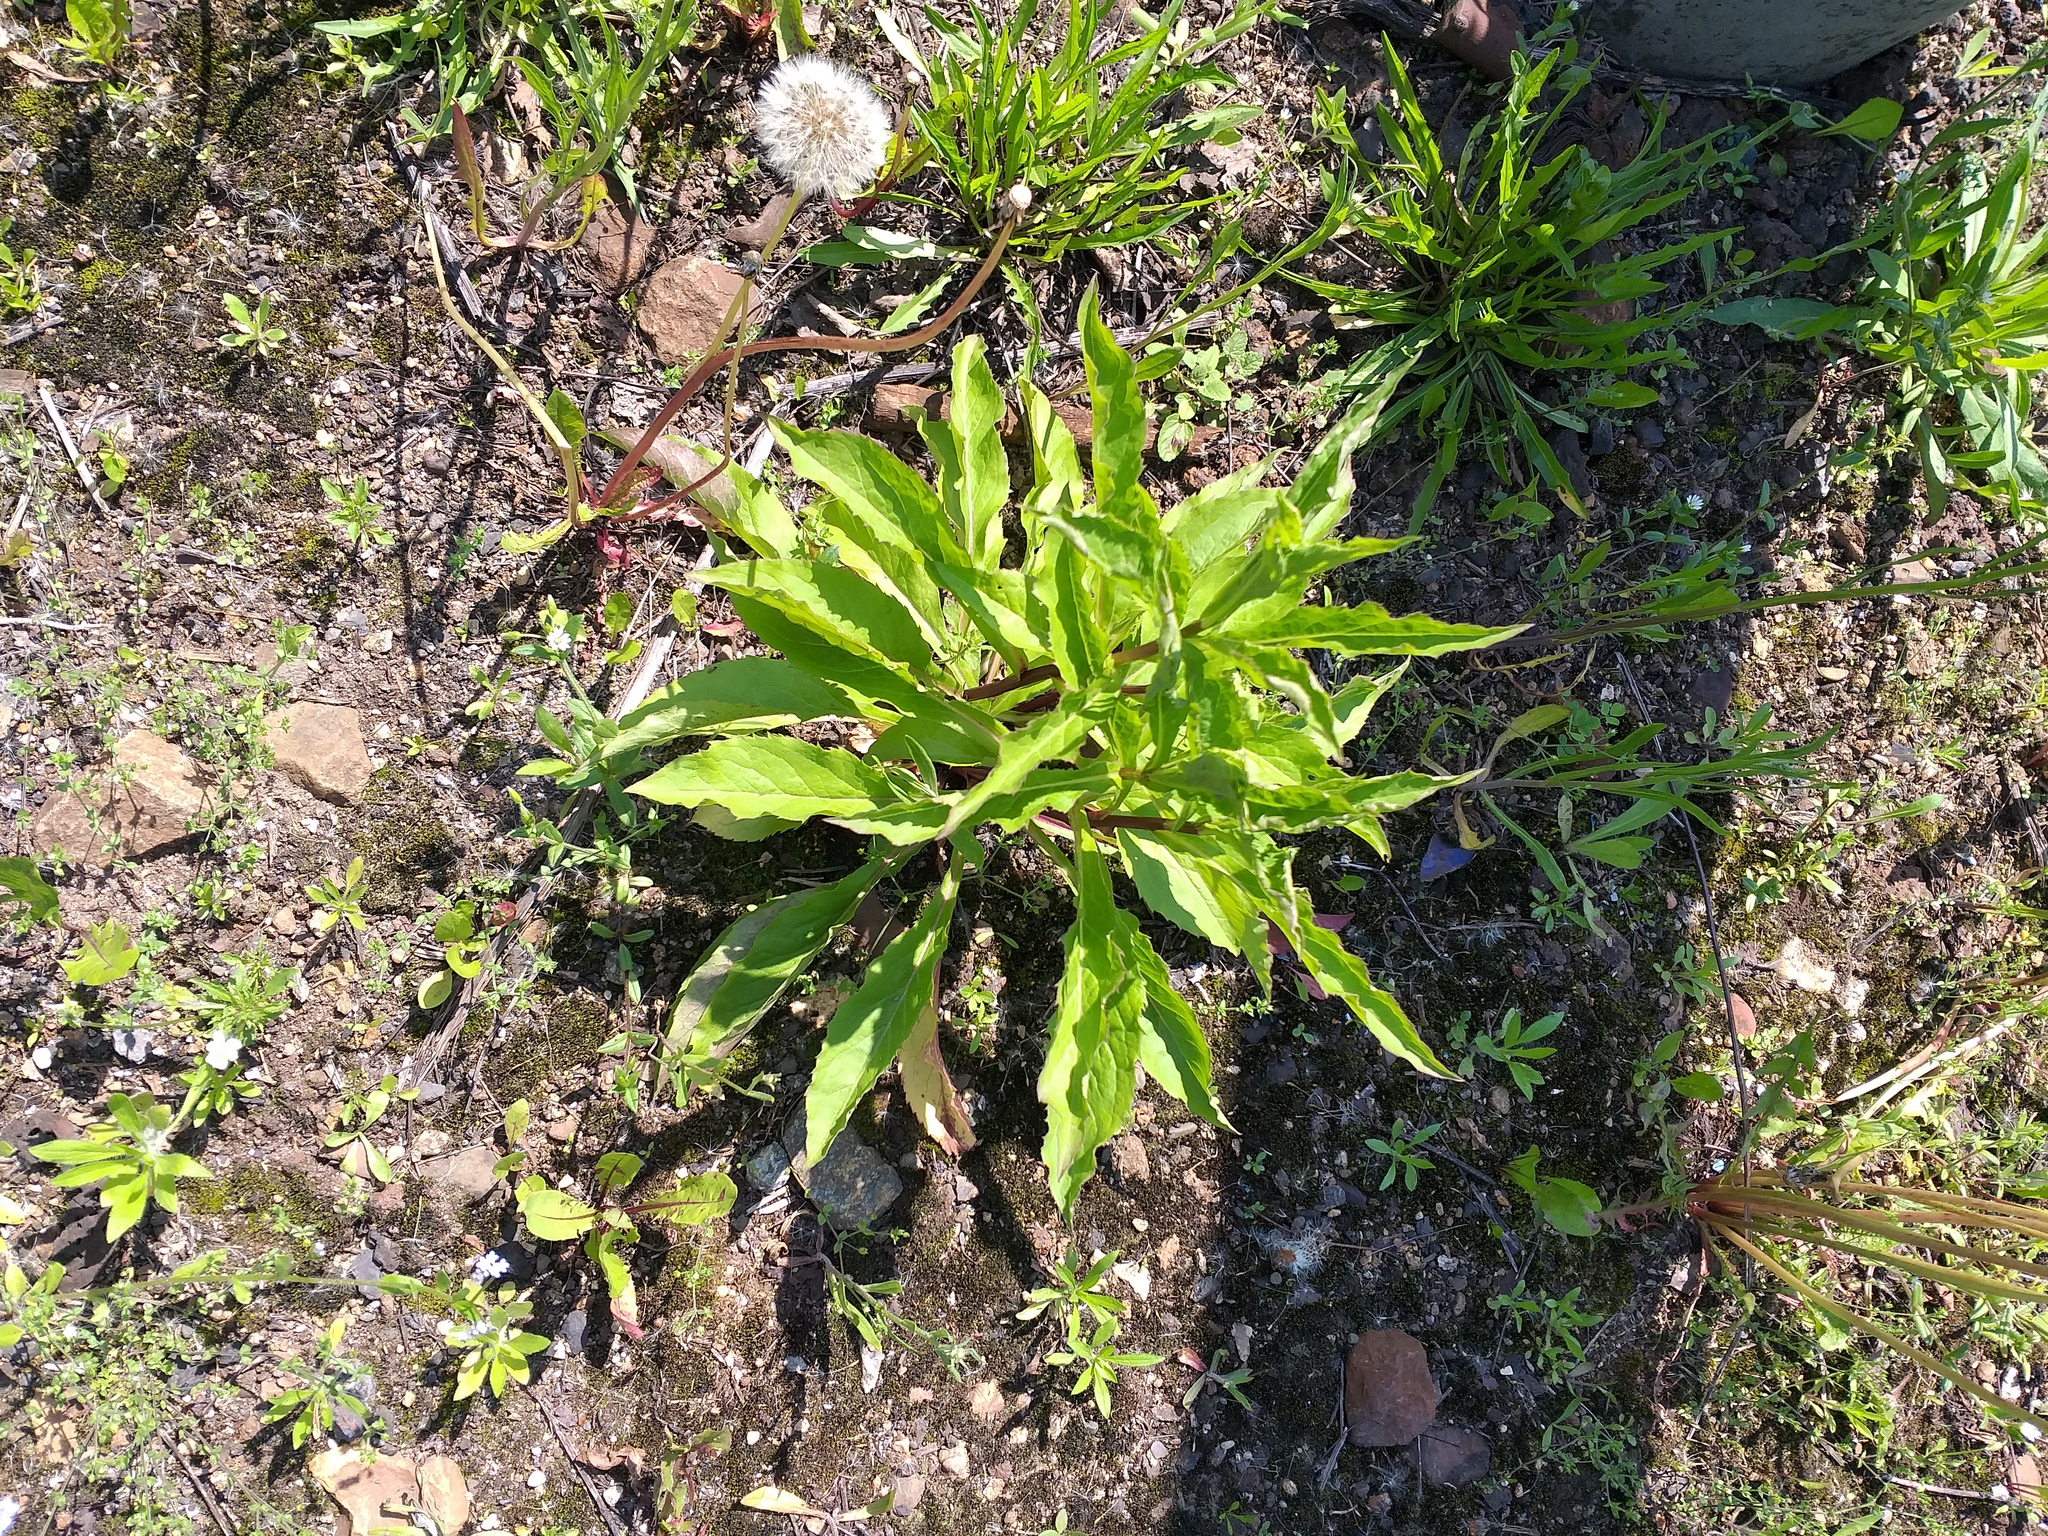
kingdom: Plantae
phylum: Tracheophyta
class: Magnoliopsida
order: Asterales
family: Asteraceae
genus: Solidago
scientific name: Solidago virgaurea
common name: Goldenrod
